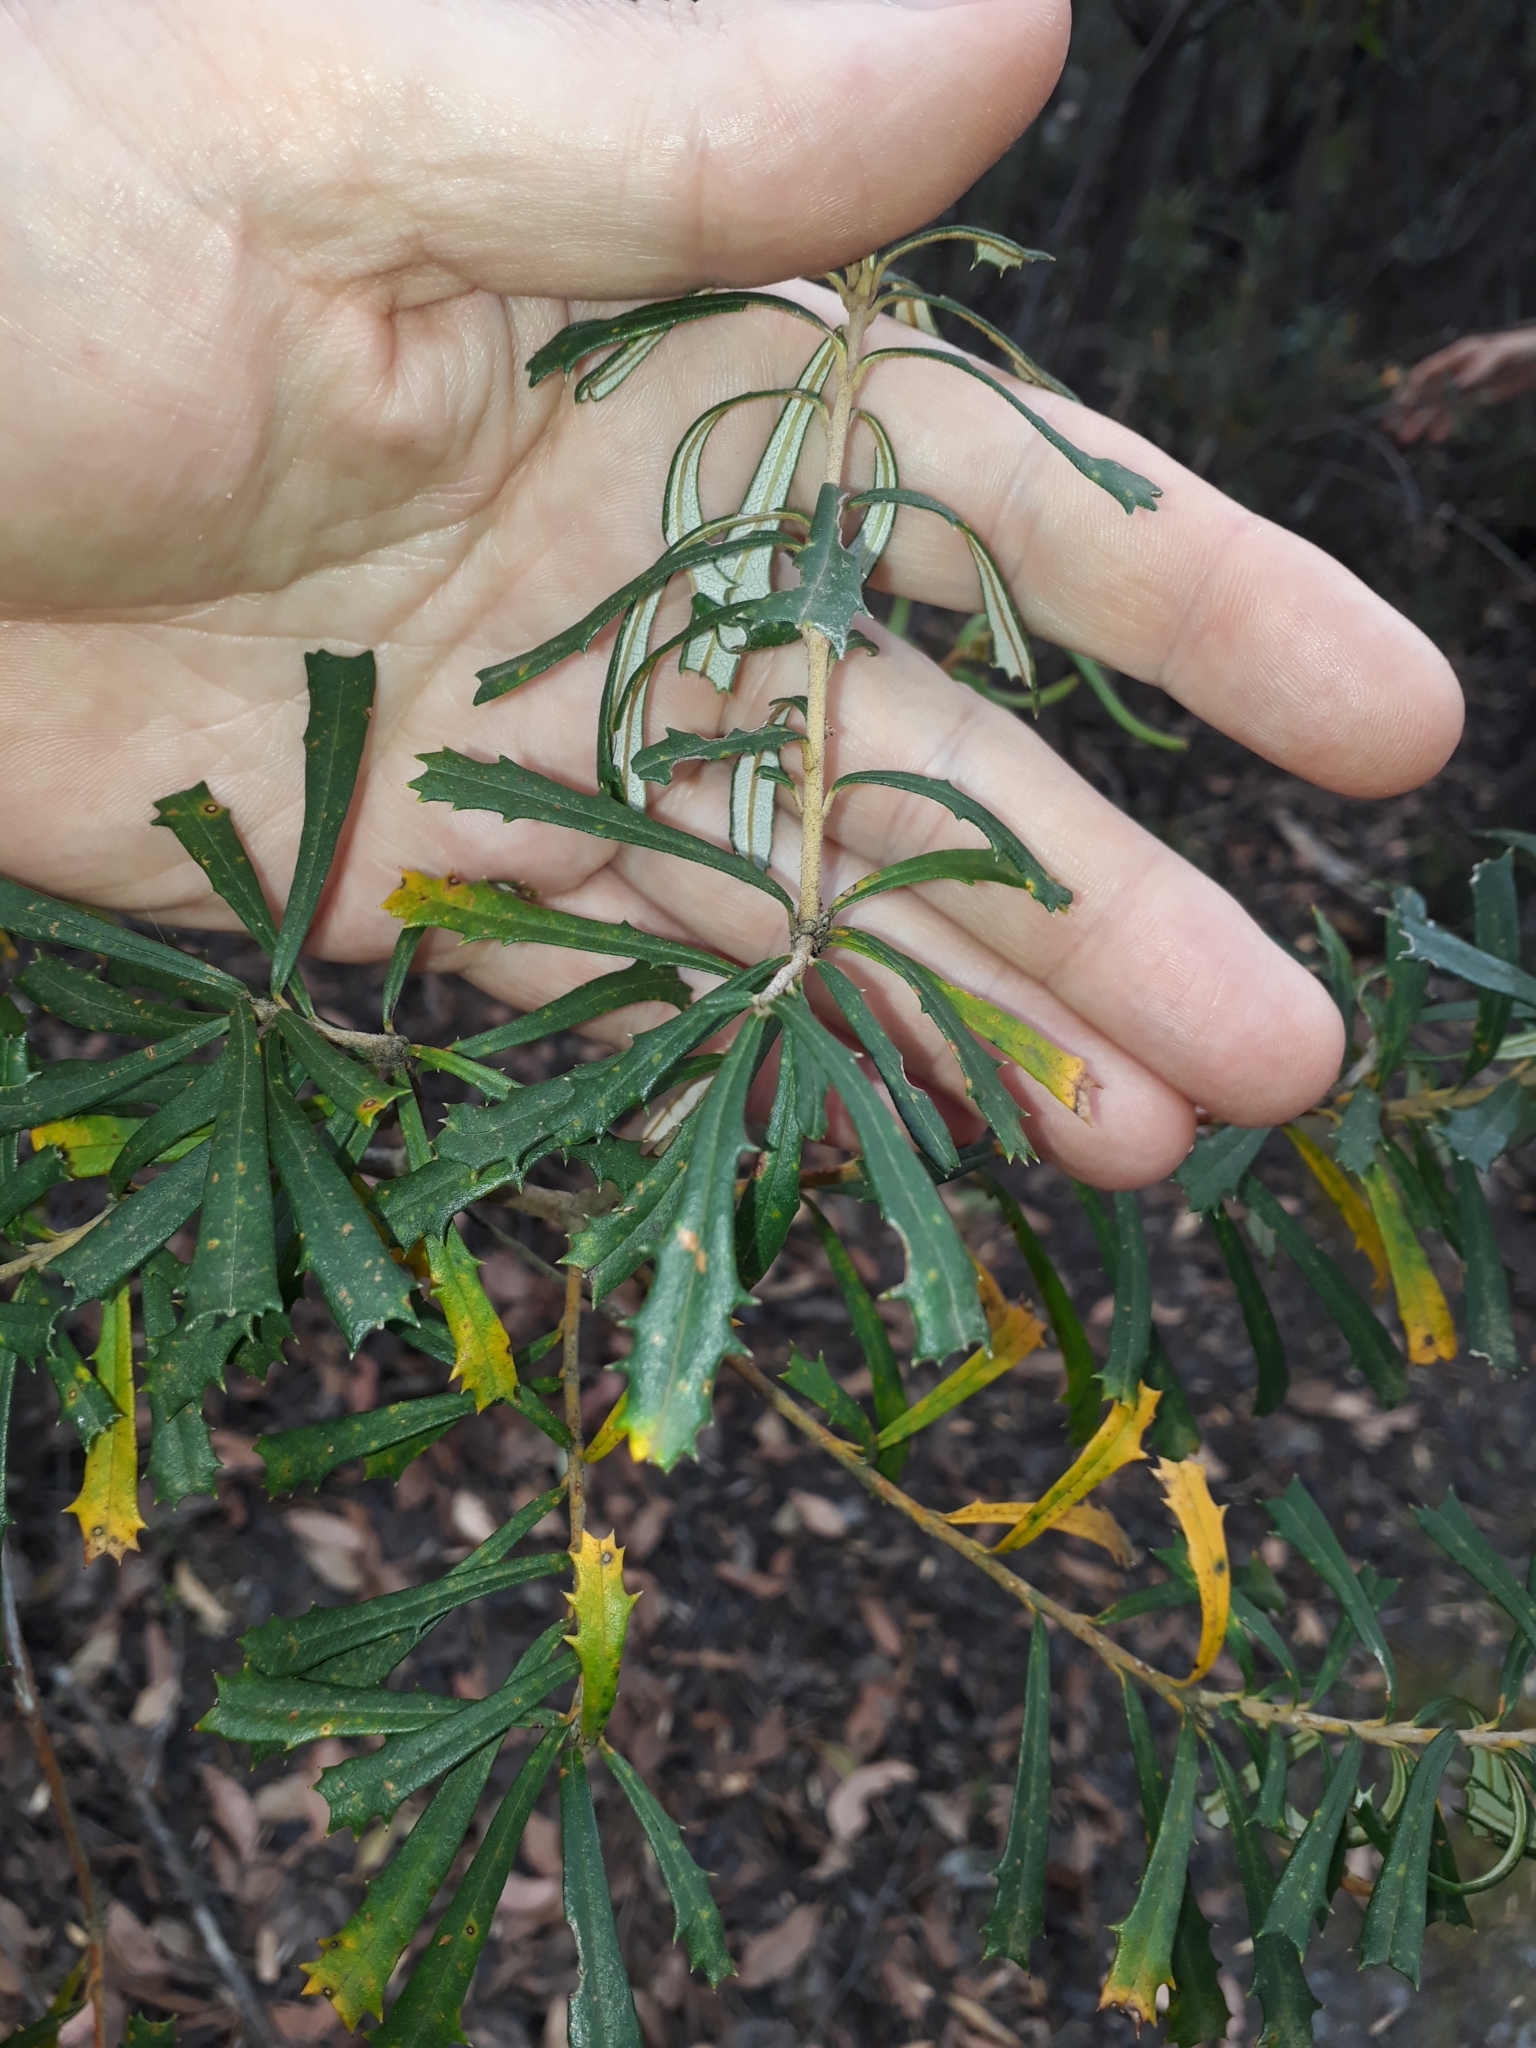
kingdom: Plantae
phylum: Tracheophyta
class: Magnoliopsida
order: Proteales
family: Proteaceae
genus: Banksia
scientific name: Banksia marginata
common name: Silver banksia
